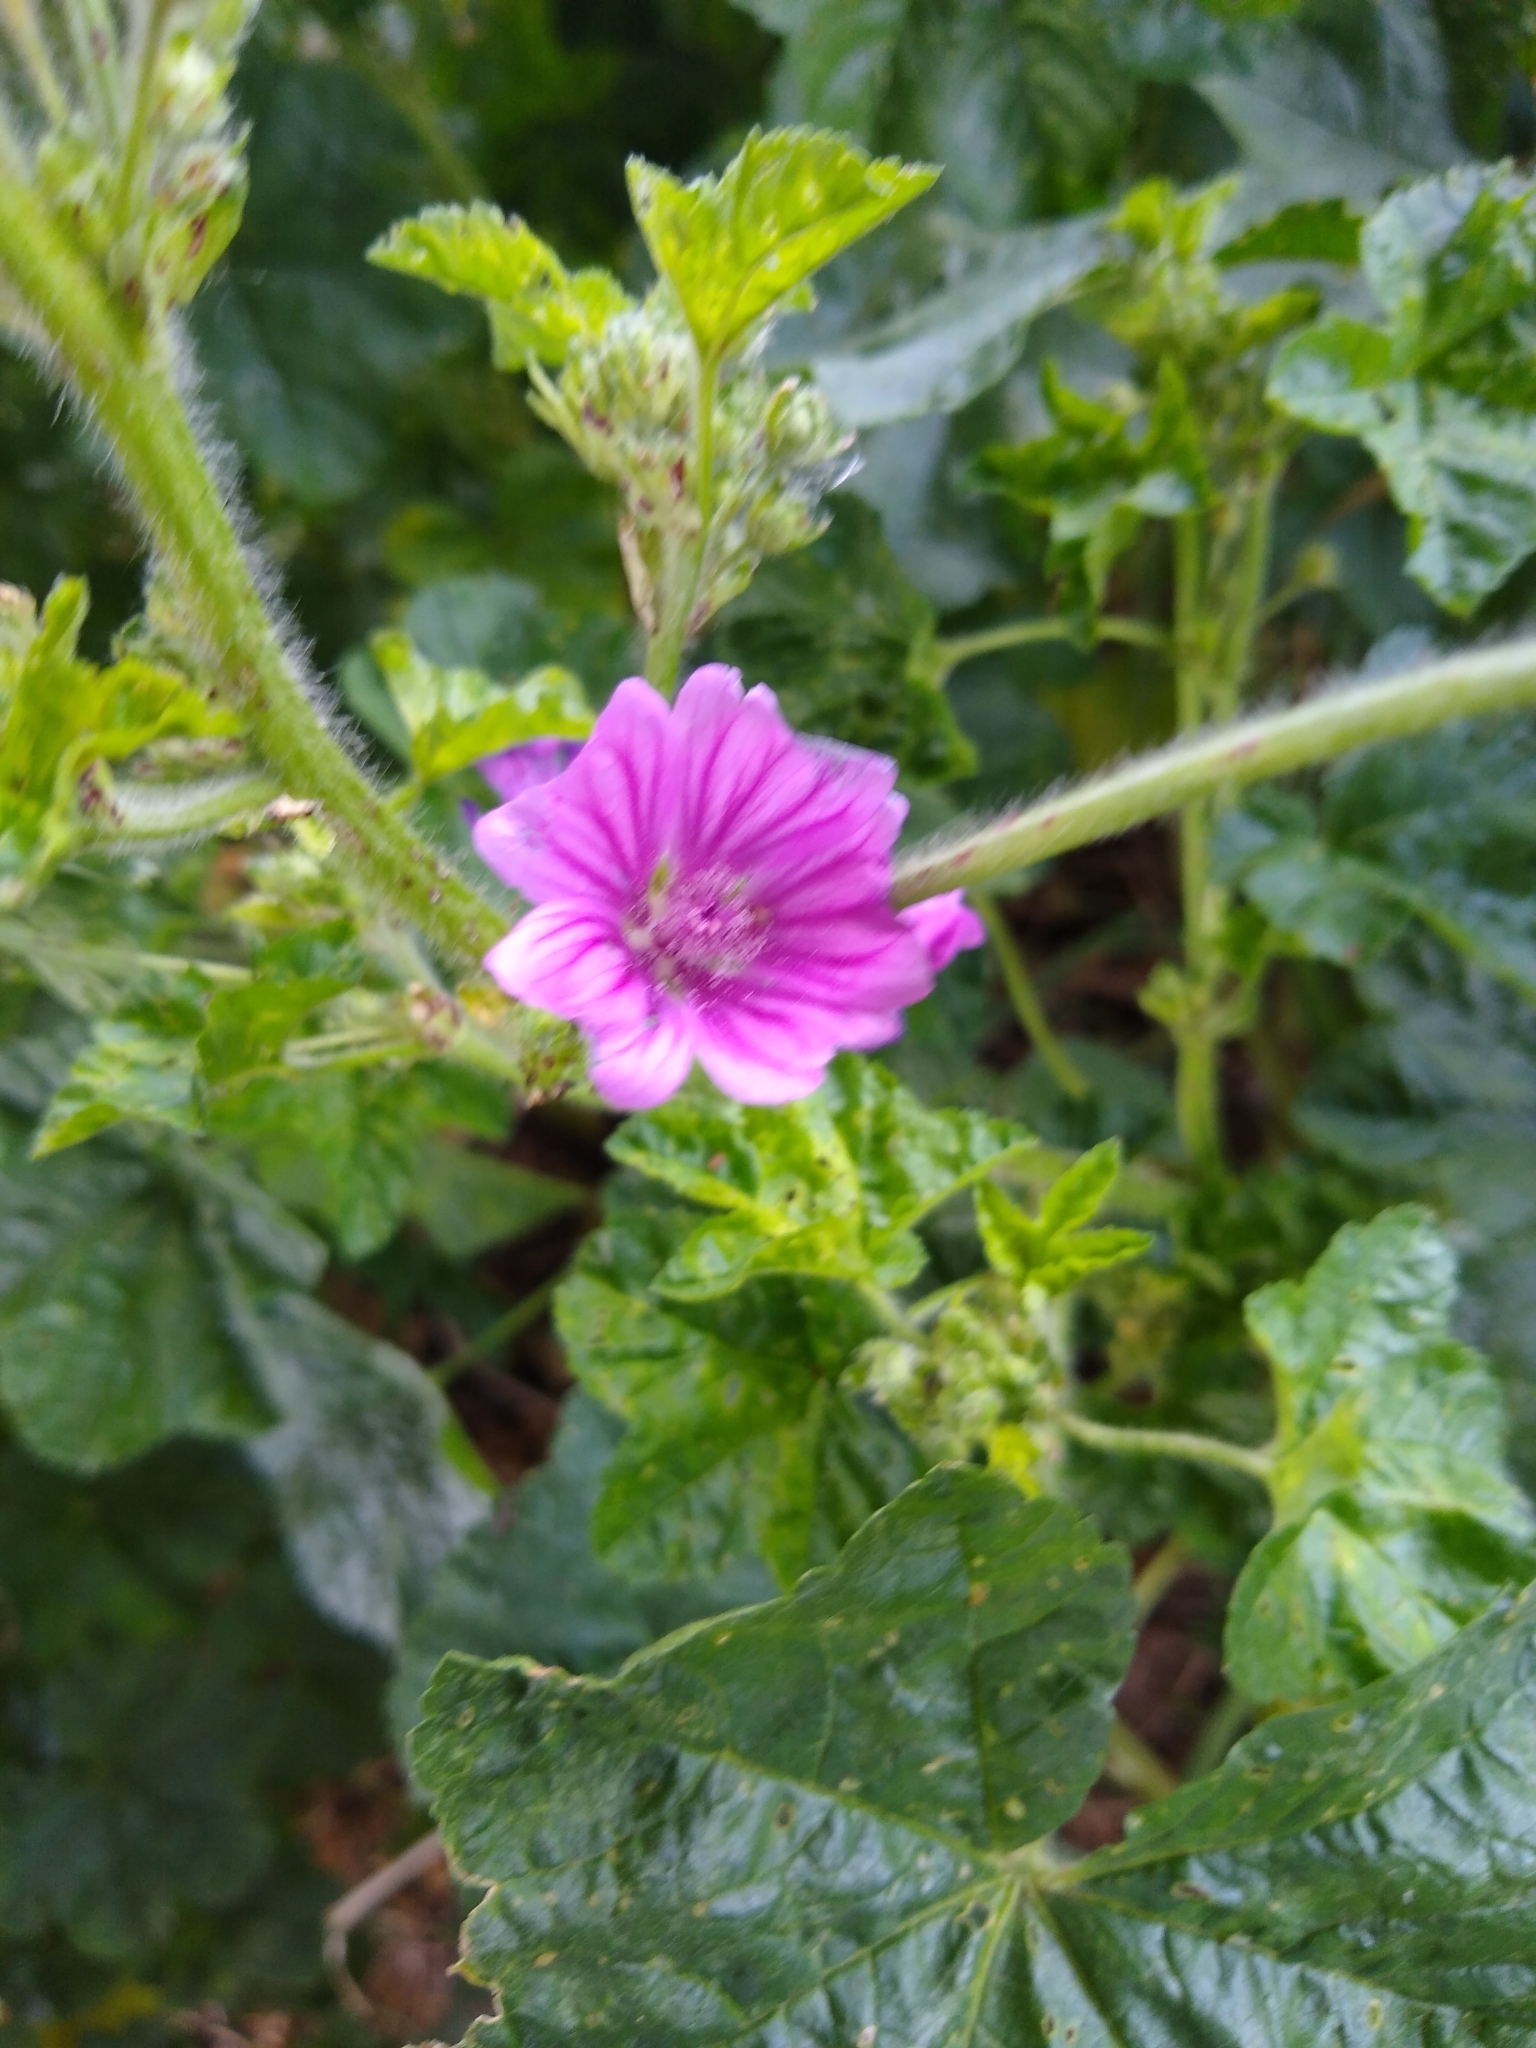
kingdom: Plantae
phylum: Tracheophyta
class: Magnoliopsida
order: Malvales
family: Malvaceae
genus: Malva
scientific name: Malva sylvestris
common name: Common mallow
